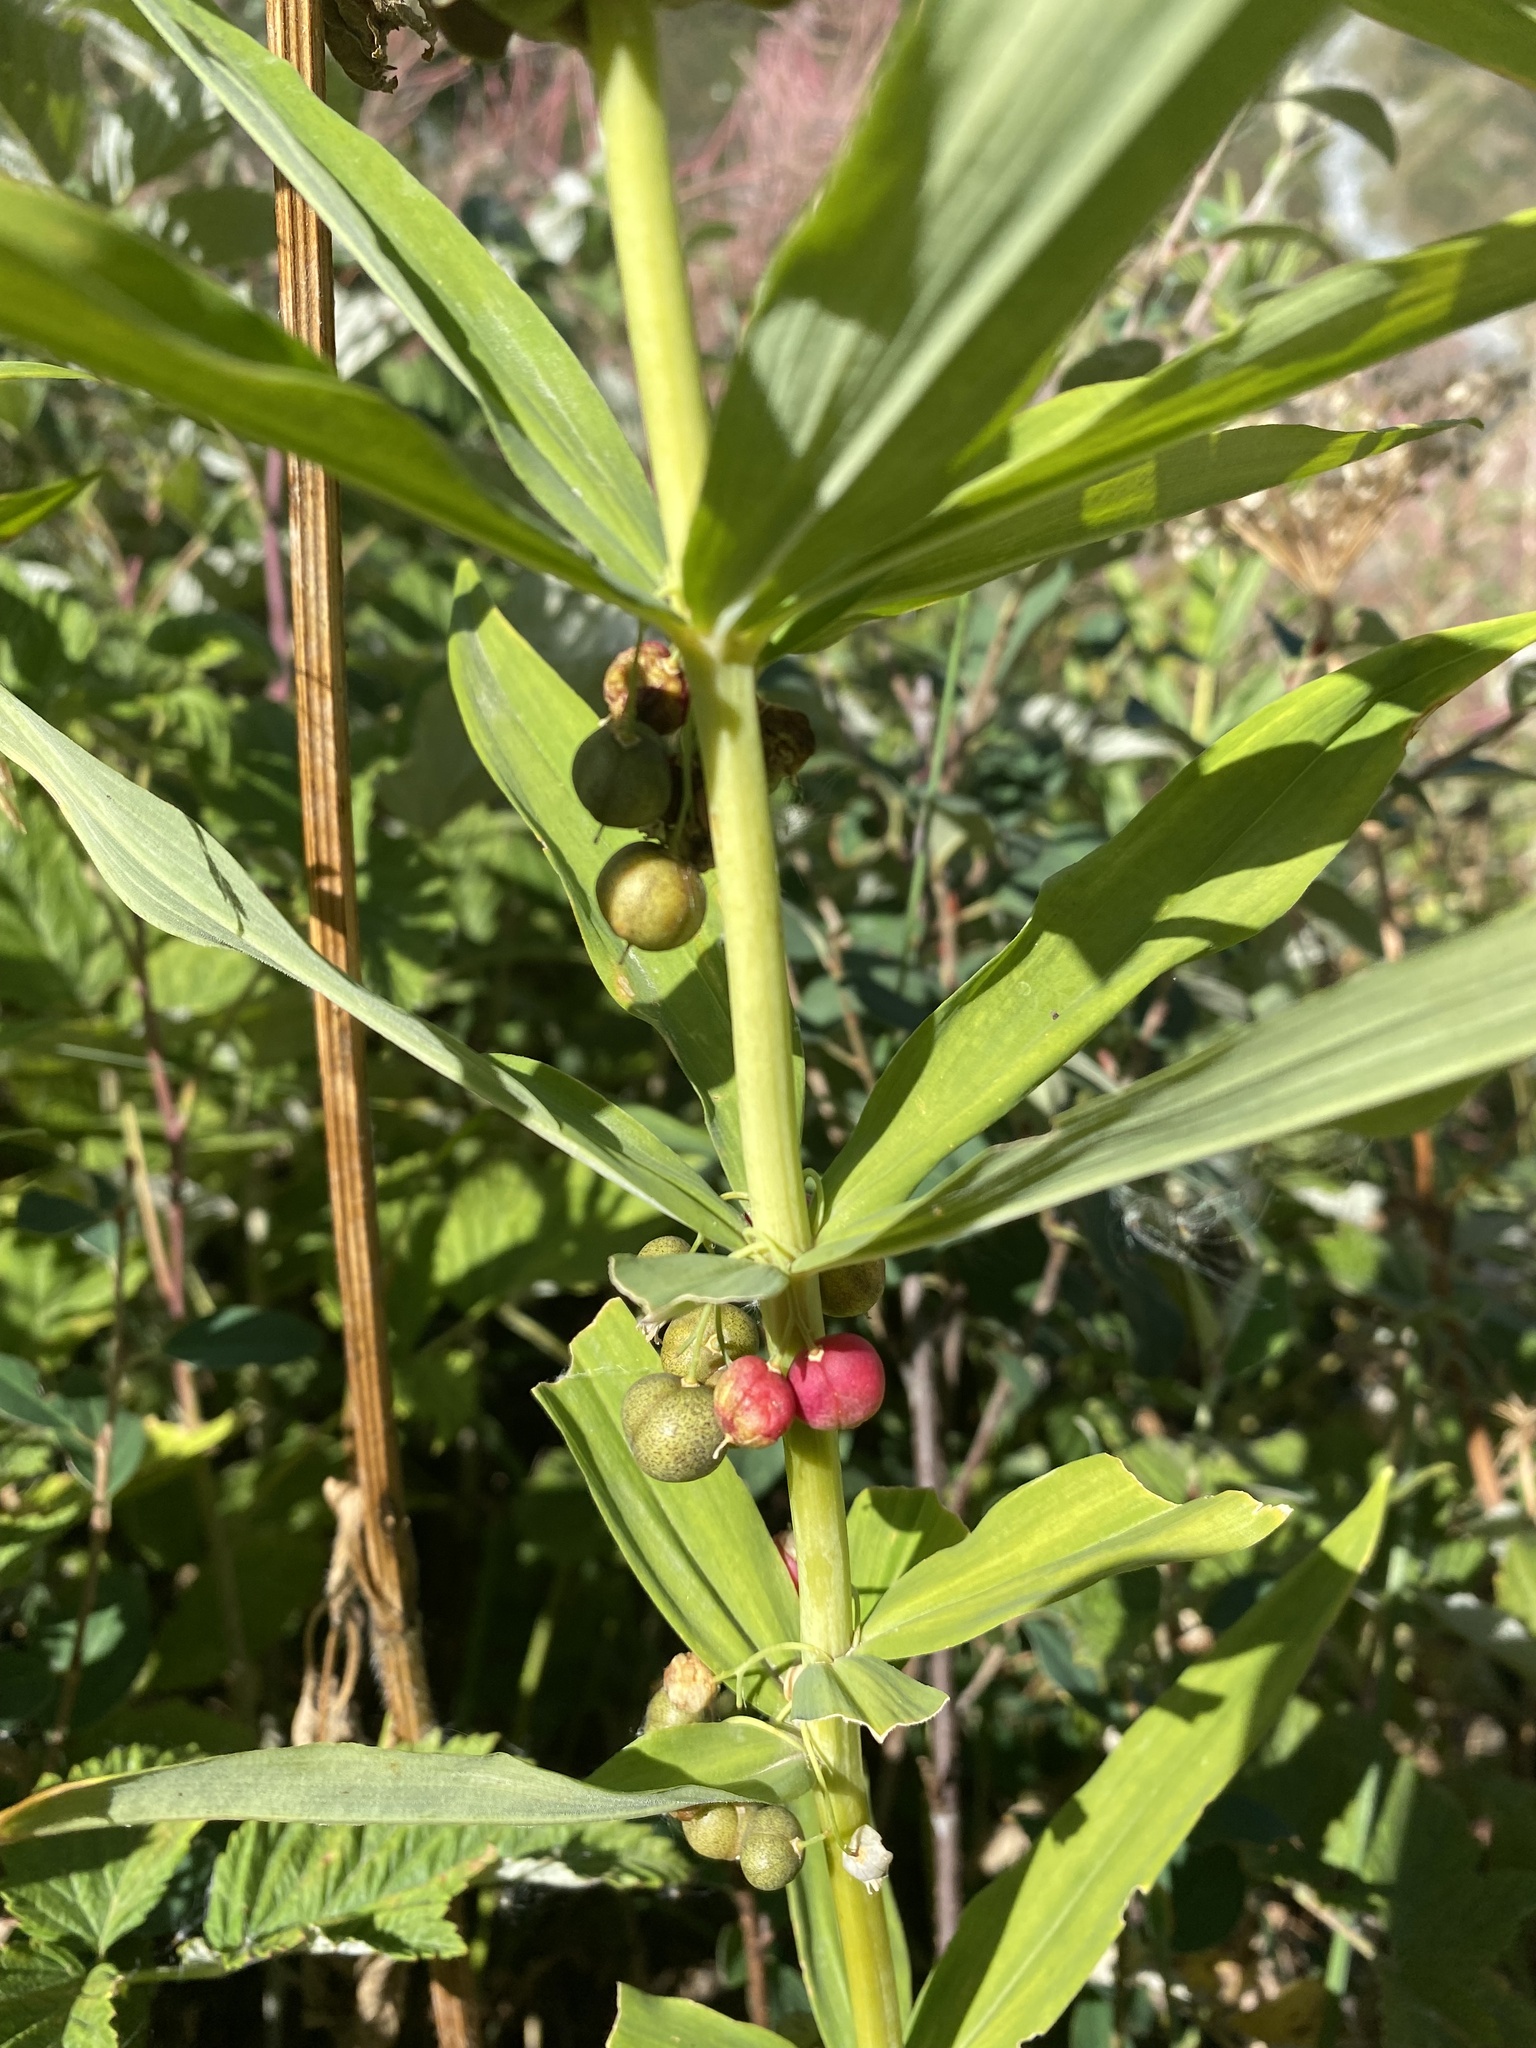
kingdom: Plantae
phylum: Tracheophyta
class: Liliopsida
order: Asparagales
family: Asparagaceae
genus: Polygonatum
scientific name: Polygonatum verticillatum
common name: Whorled solomon's-seal
